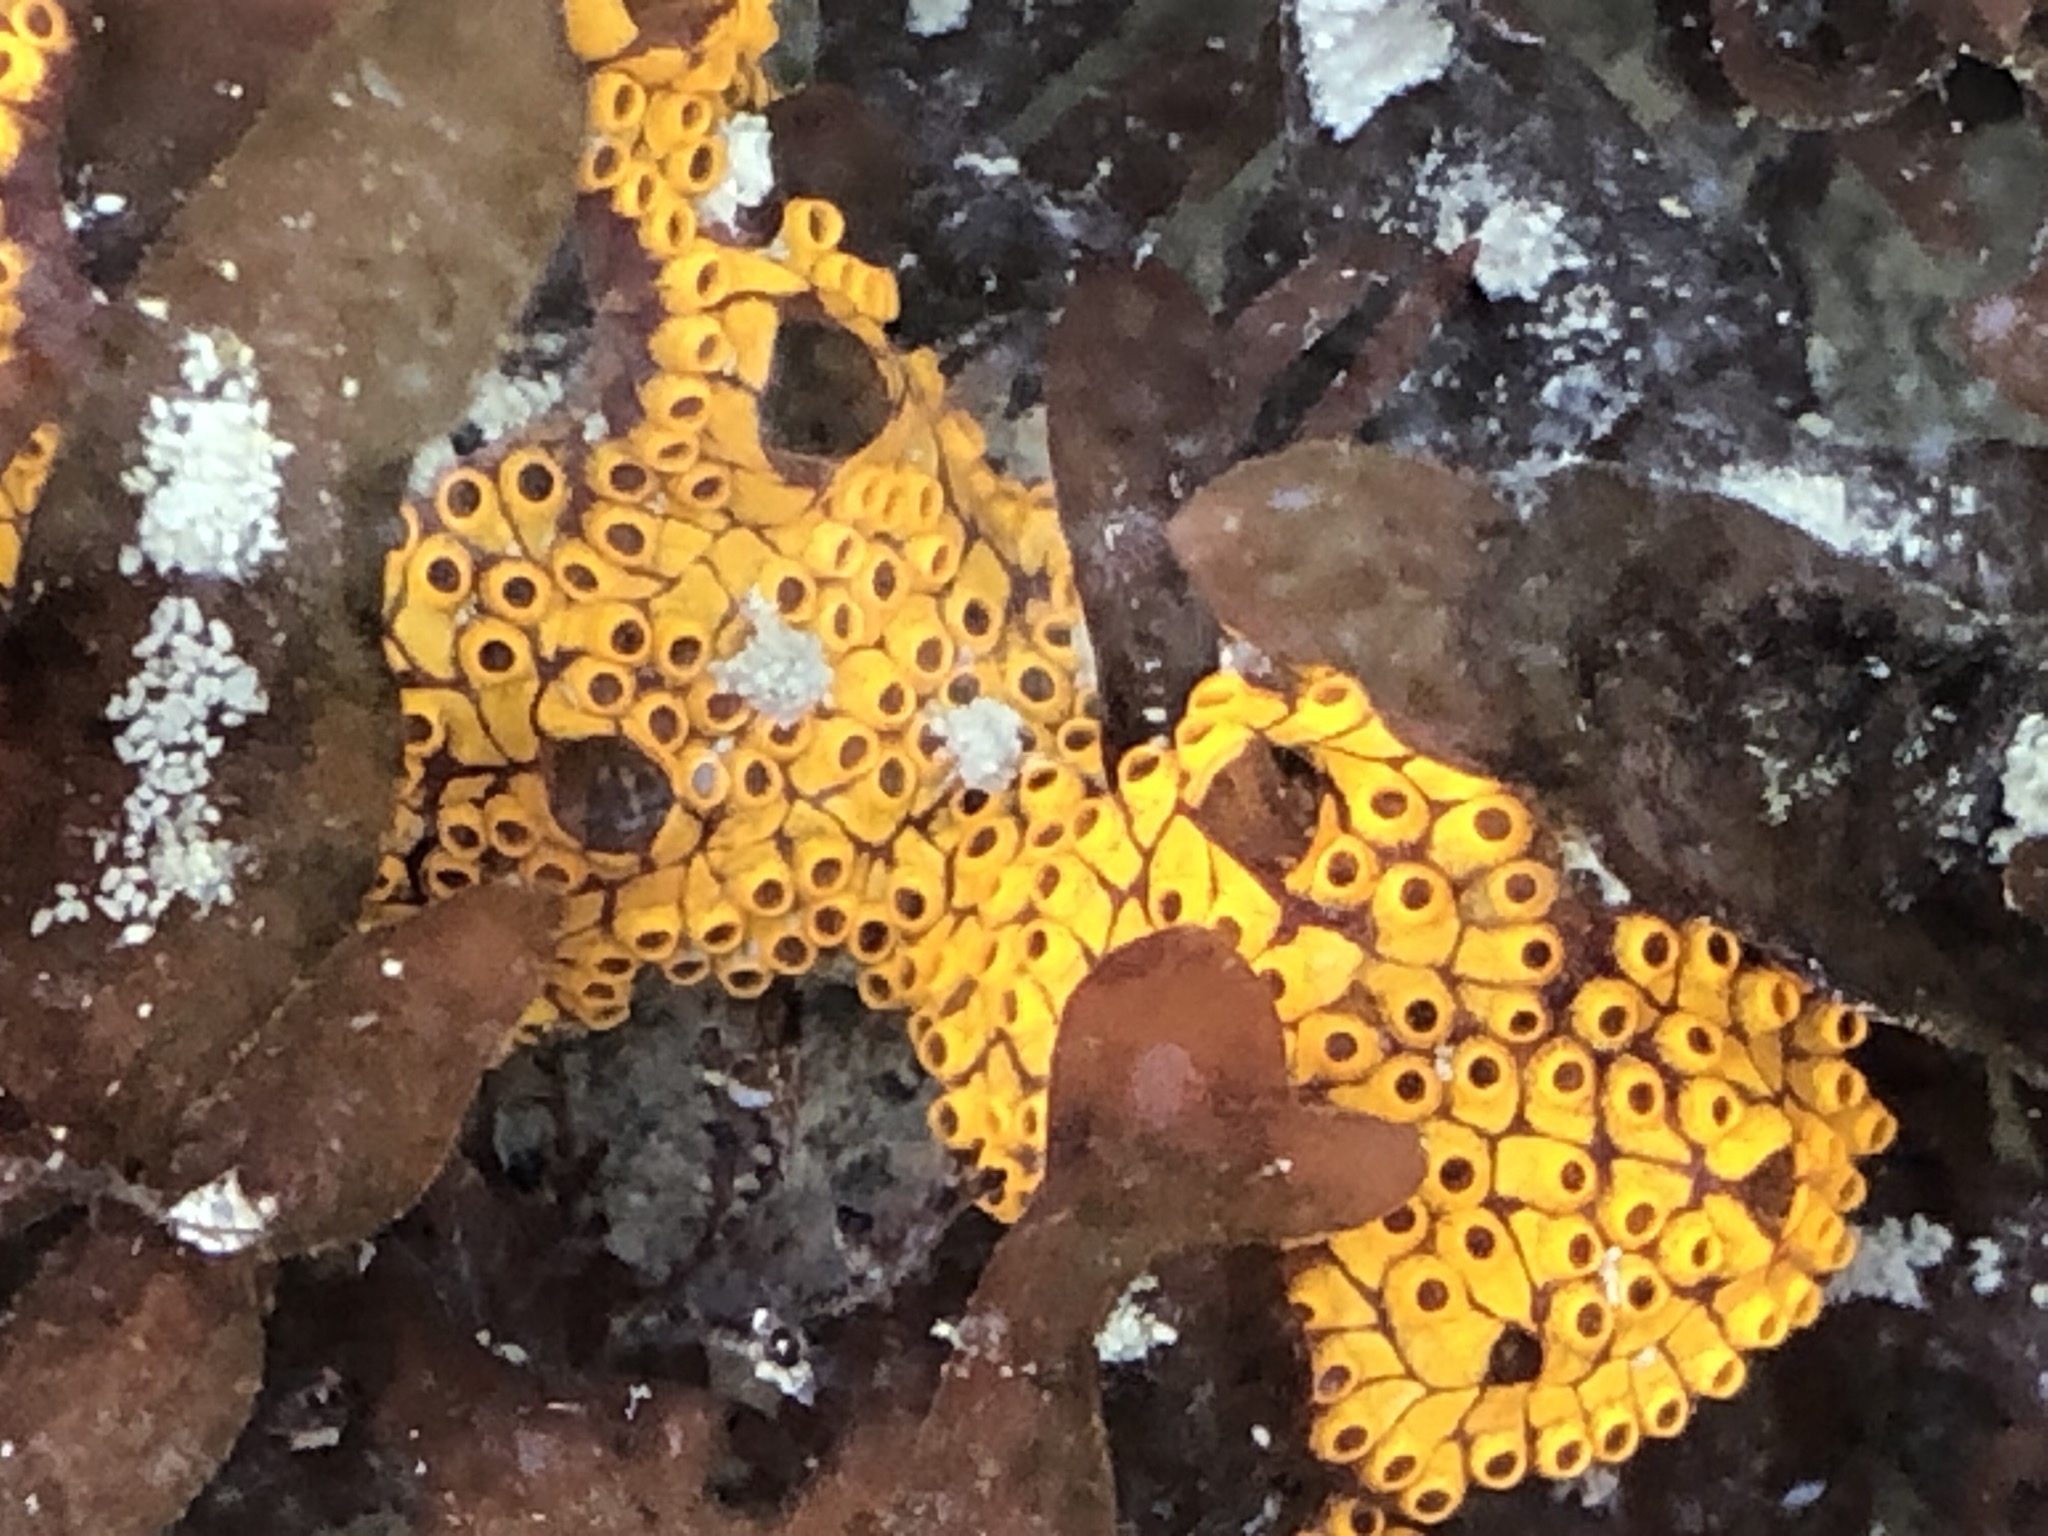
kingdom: Animalia
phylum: Chordata
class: Ascidiacea
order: Stolidobranchia
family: Styelidae
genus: Botrylloides
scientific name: Botrylloides diegensis
